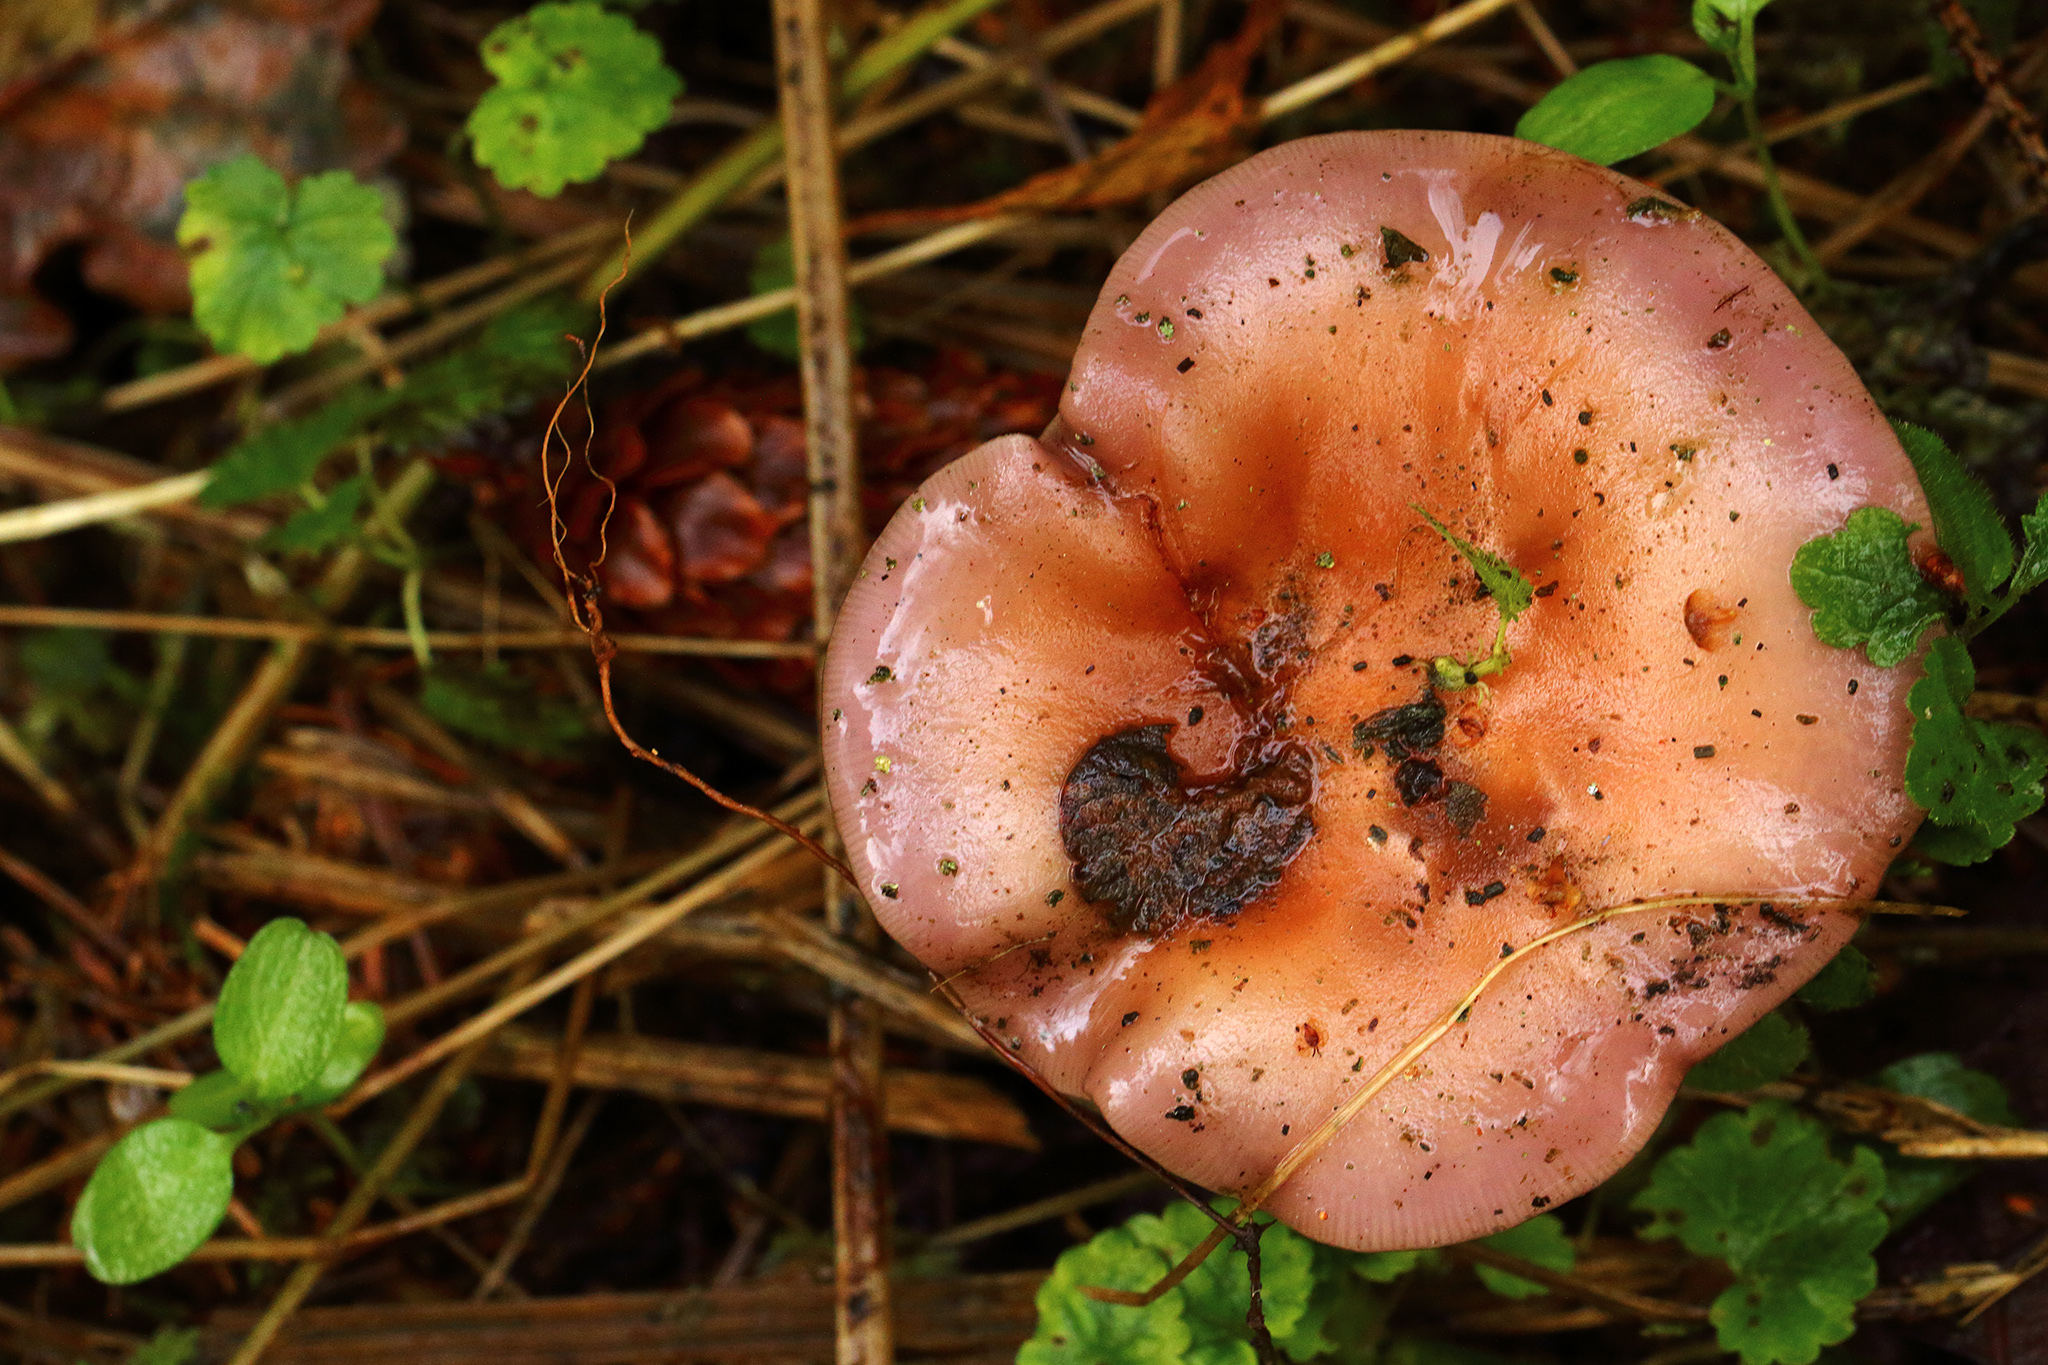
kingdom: Fungi
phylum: Basidiomycota
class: Agaricomycetes
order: Agaricales
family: Tricholomataceae
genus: Collybia
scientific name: Collybia
